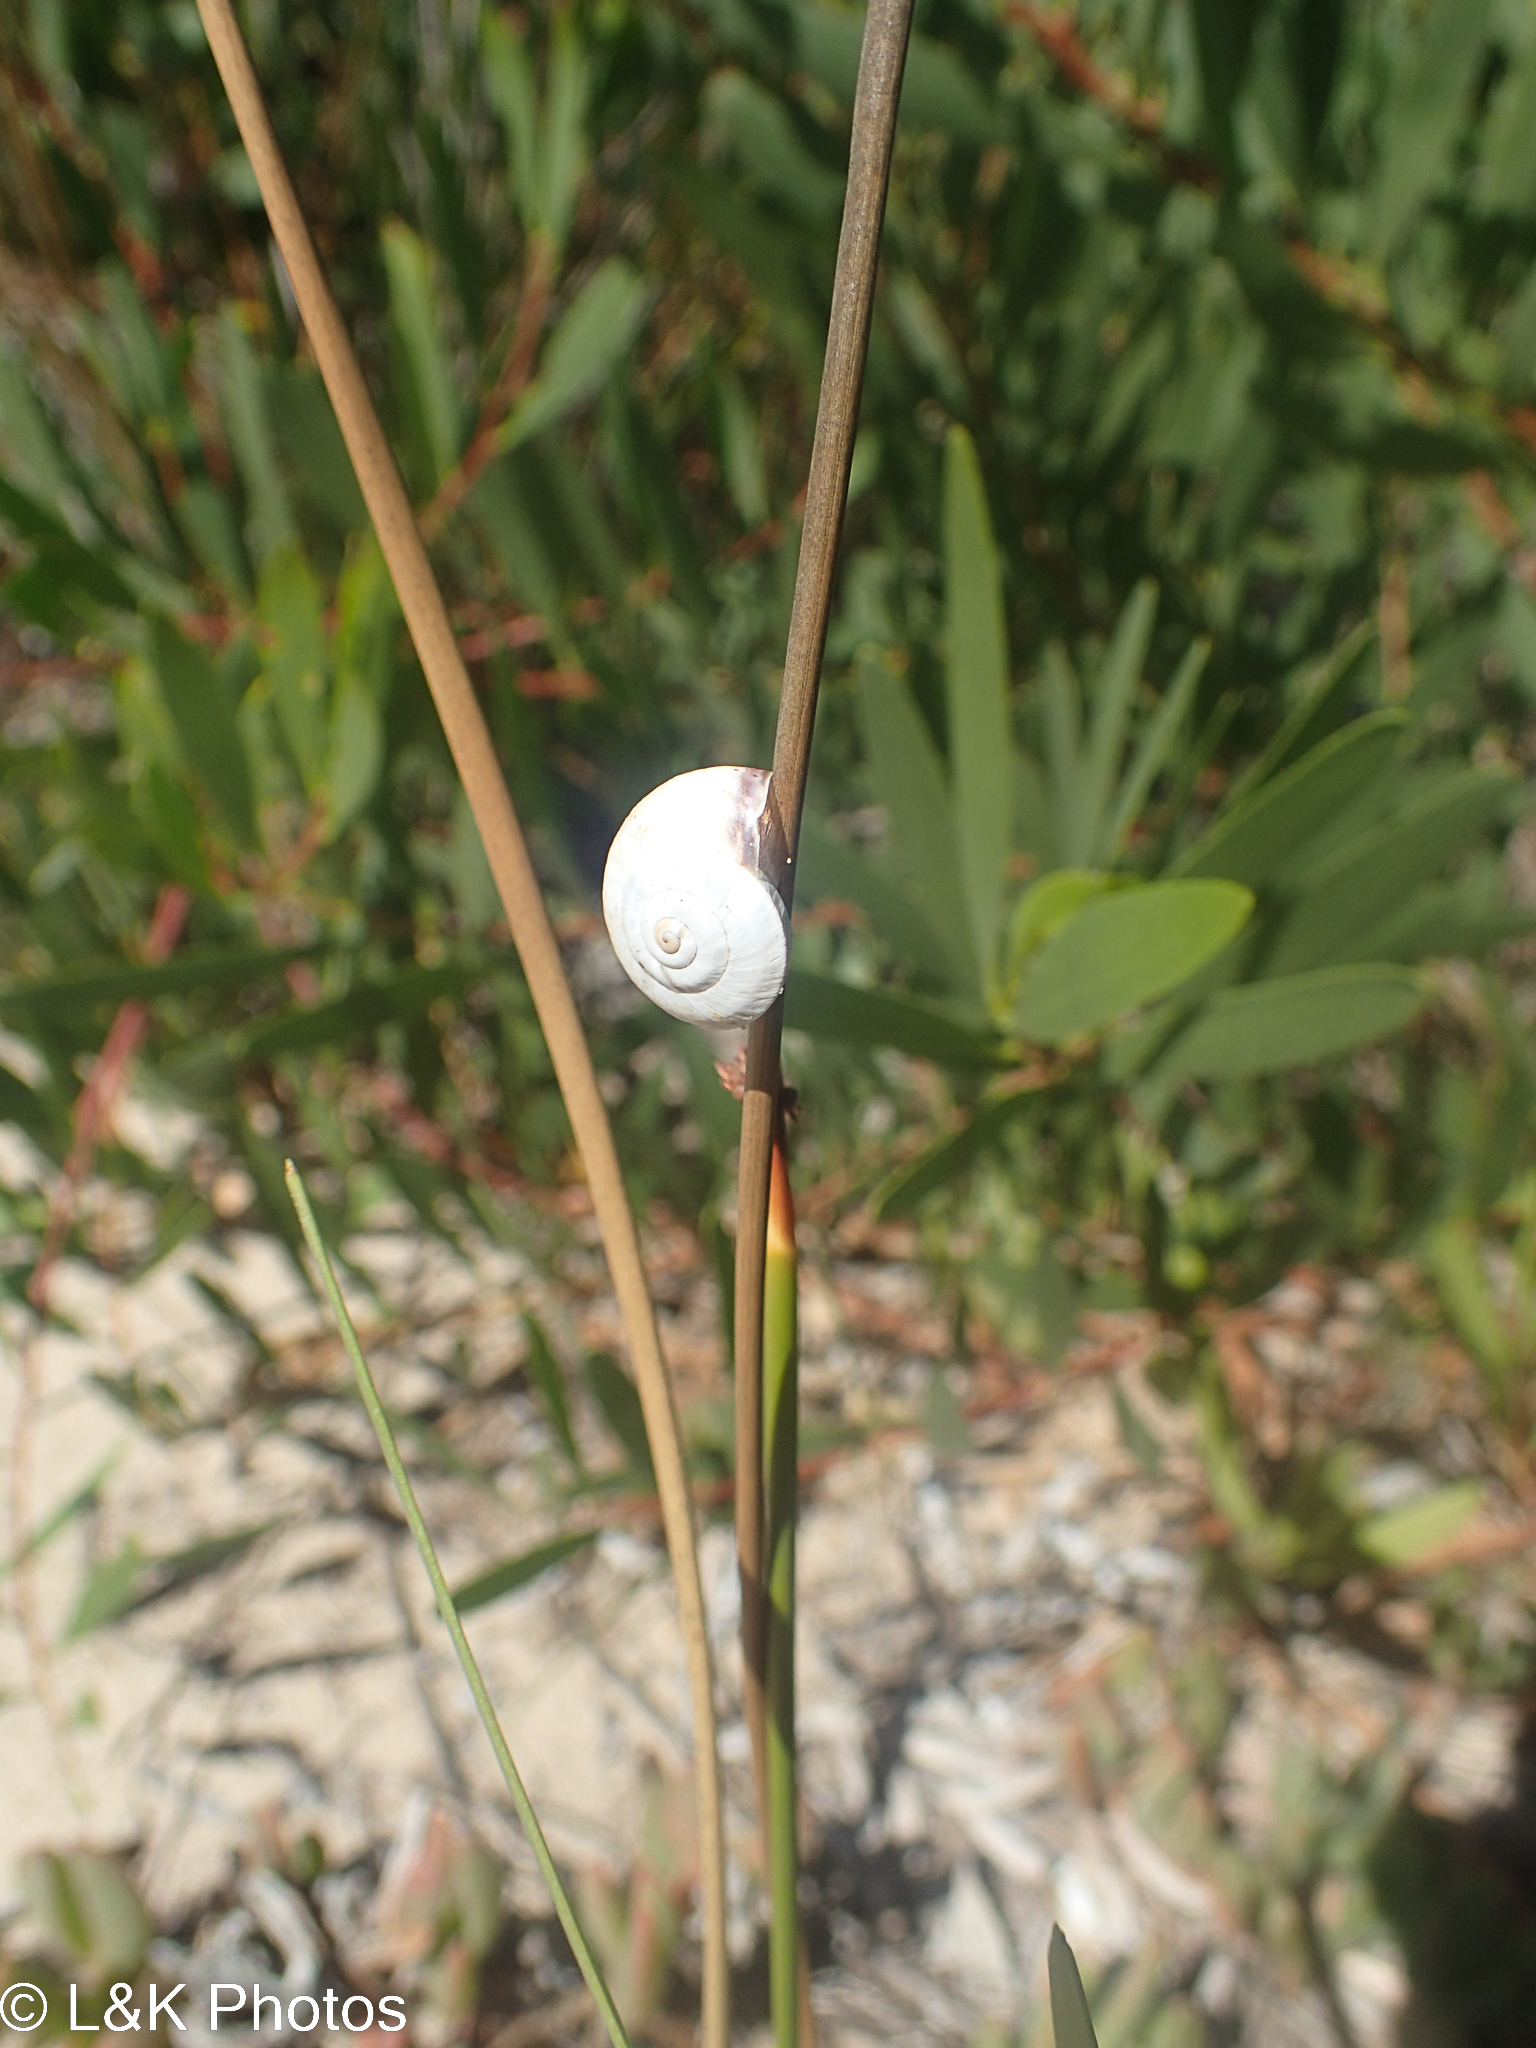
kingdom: Animalia
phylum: Mollusca
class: Gastropoda
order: Stylommatophora
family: Helicidae
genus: Theba
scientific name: Theba pisana
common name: White snail
